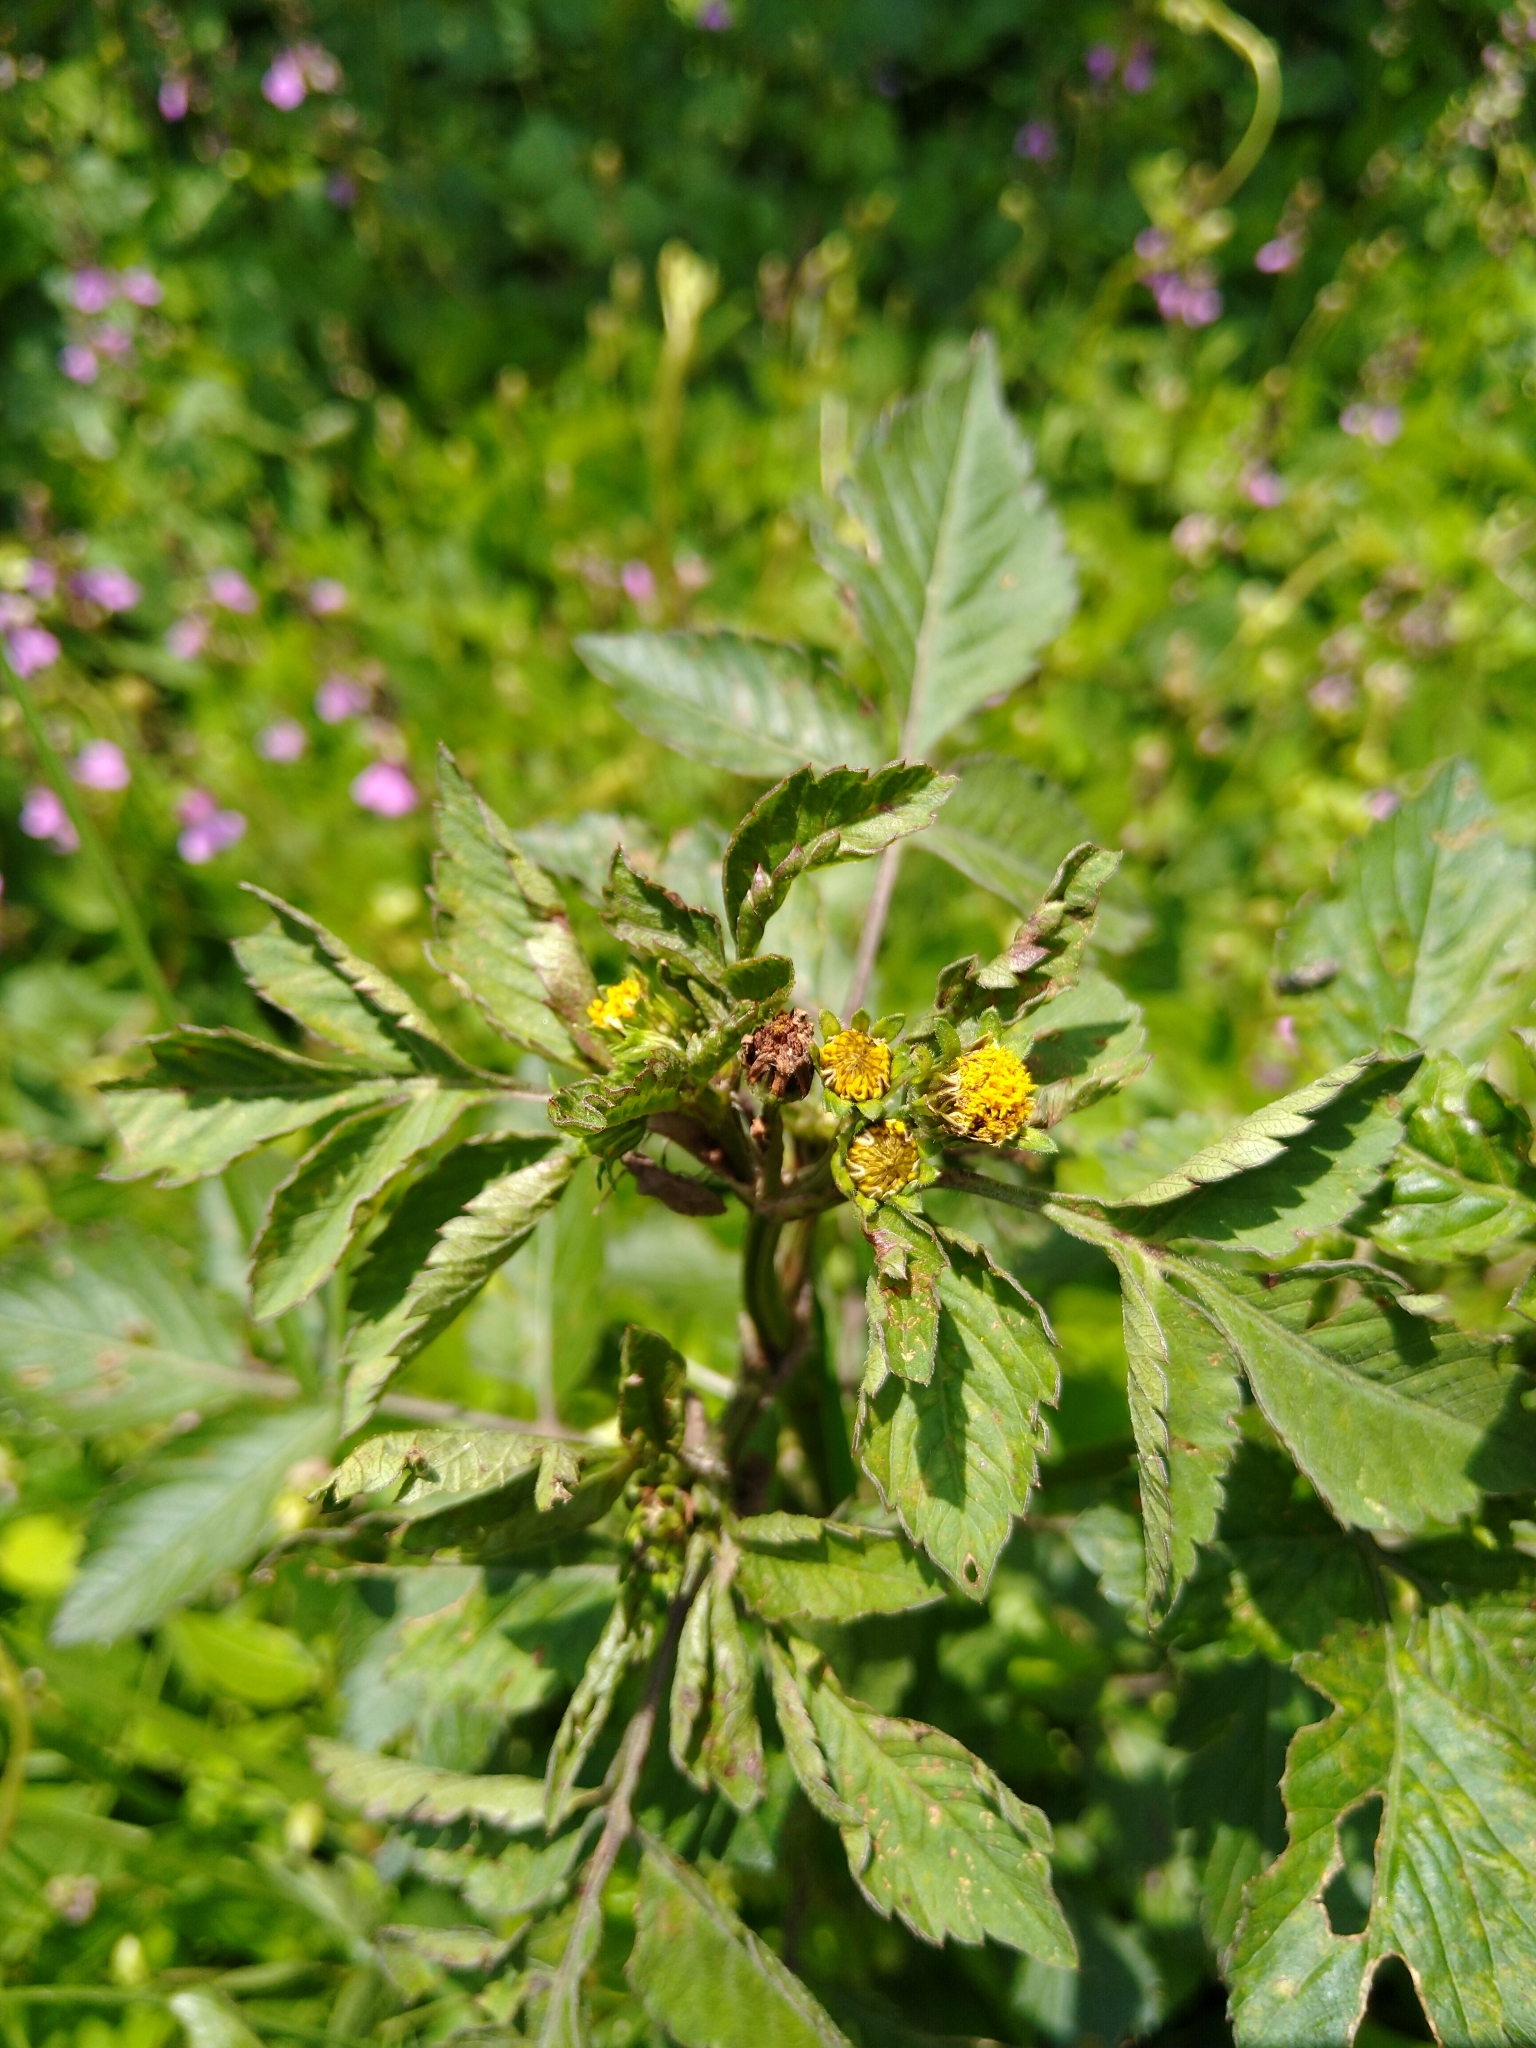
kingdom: Plantae
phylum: Tracheophyta
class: Magnoliopsida
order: Asterales
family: Asteraceae
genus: Bidens
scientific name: Bidens pilosa
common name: Black-jack
